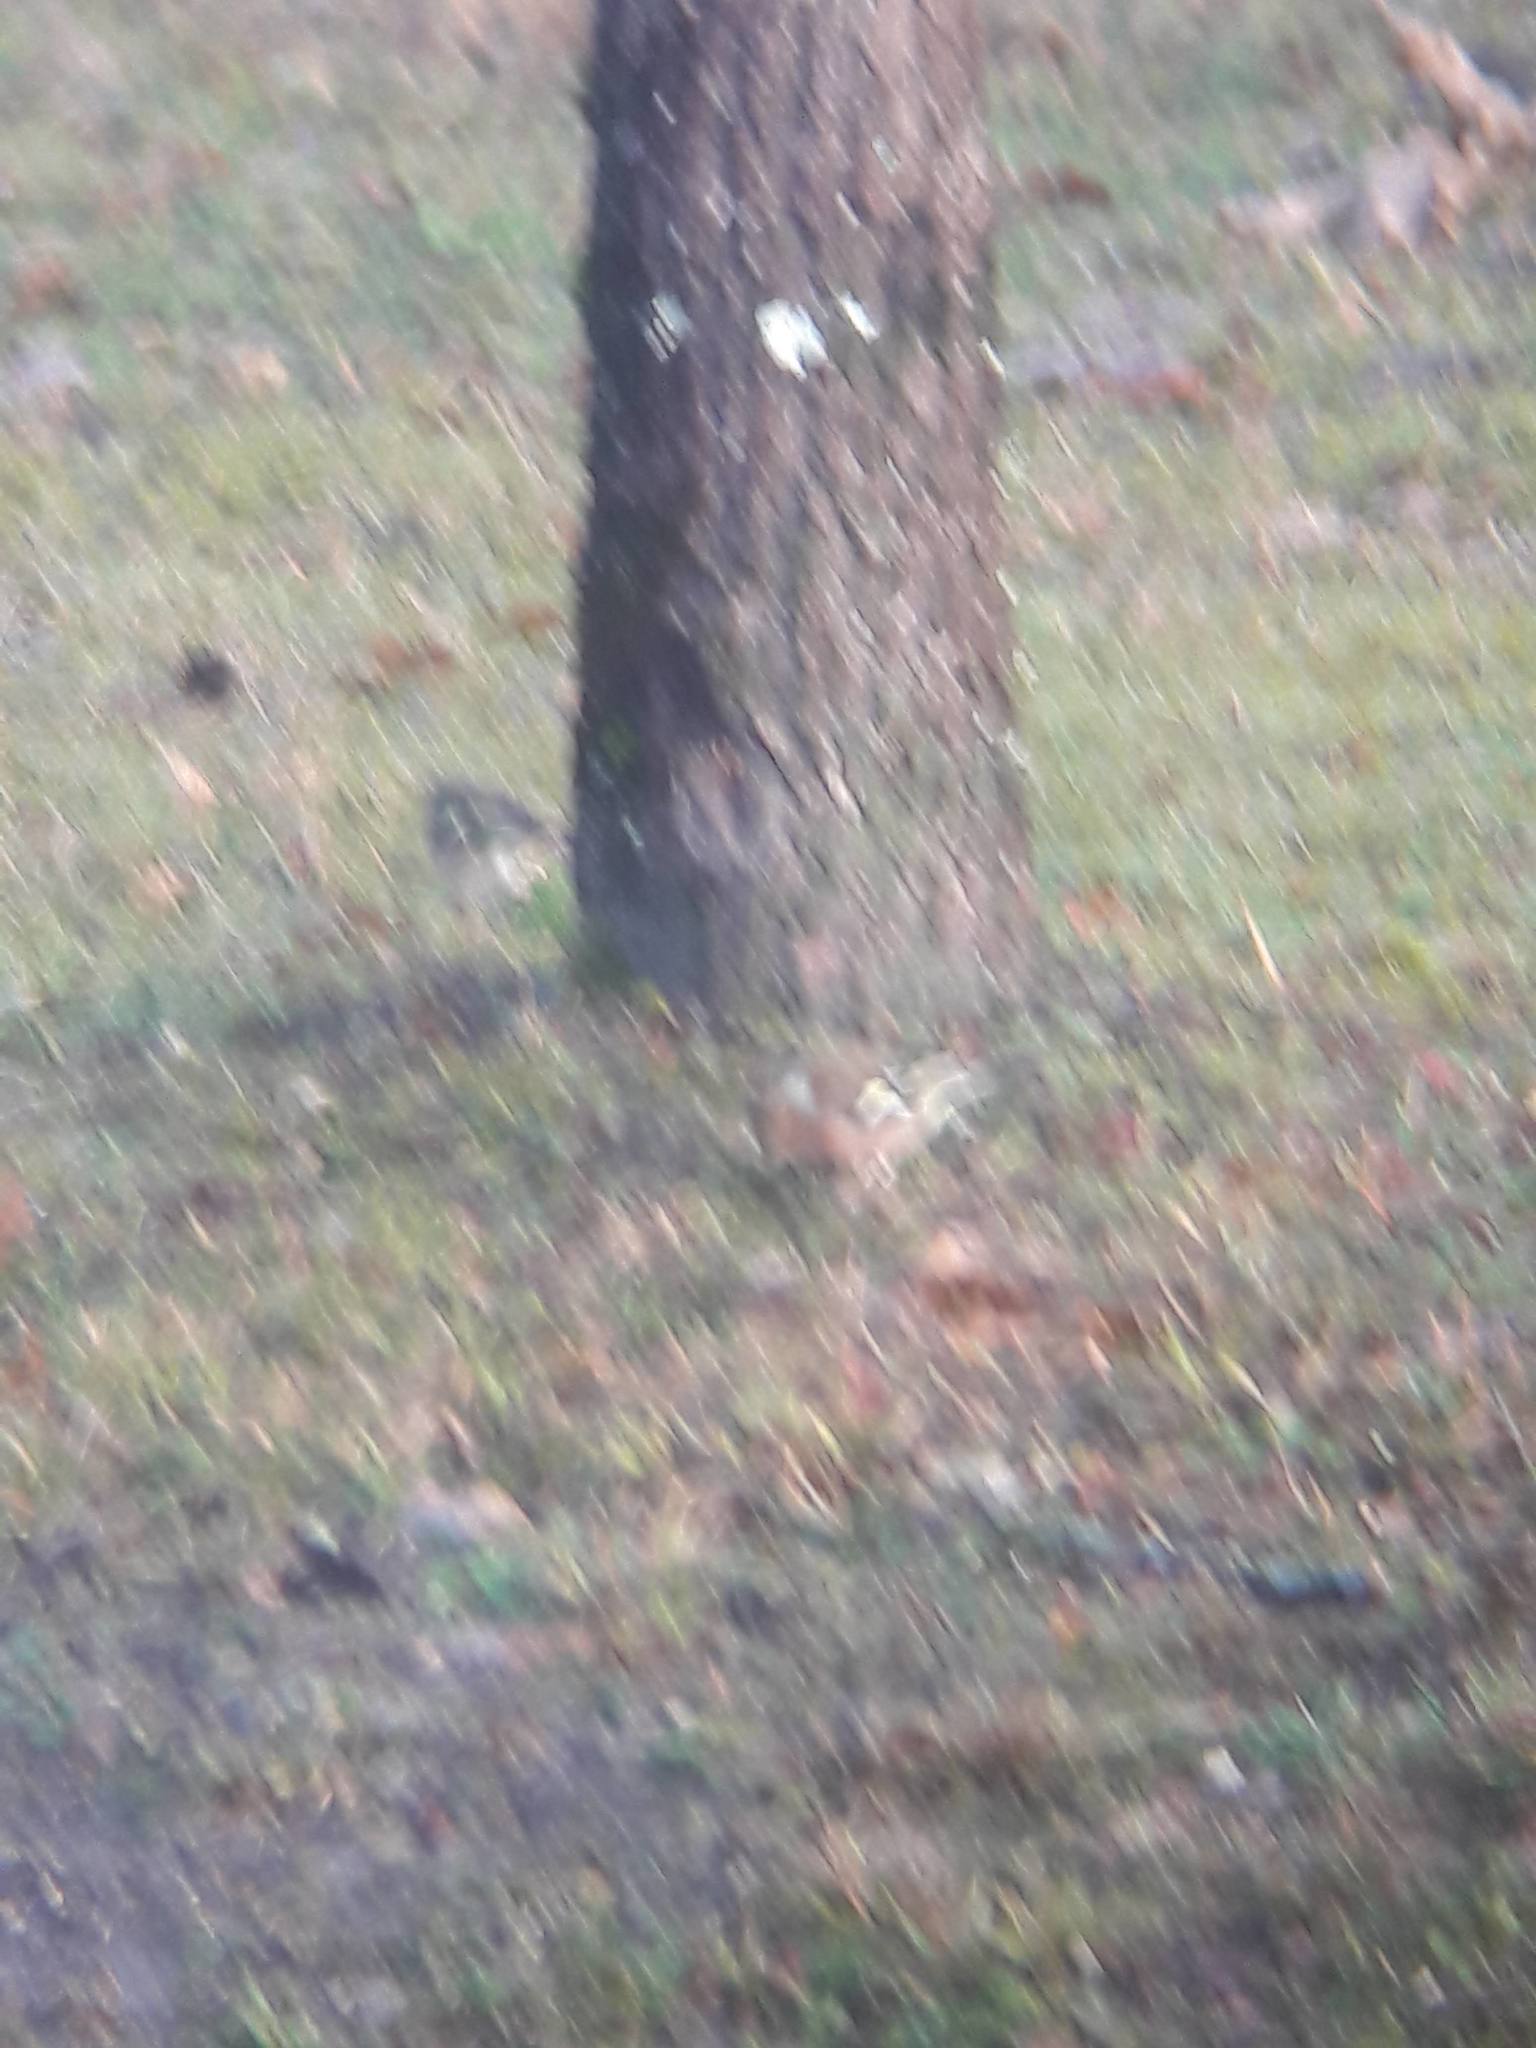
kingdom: Animalia
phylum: Chordata
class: Aves
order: Passeriformes
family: Fringillidae
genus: Fringilla
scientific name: Fringilla coelebs
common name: Common chaffinch
